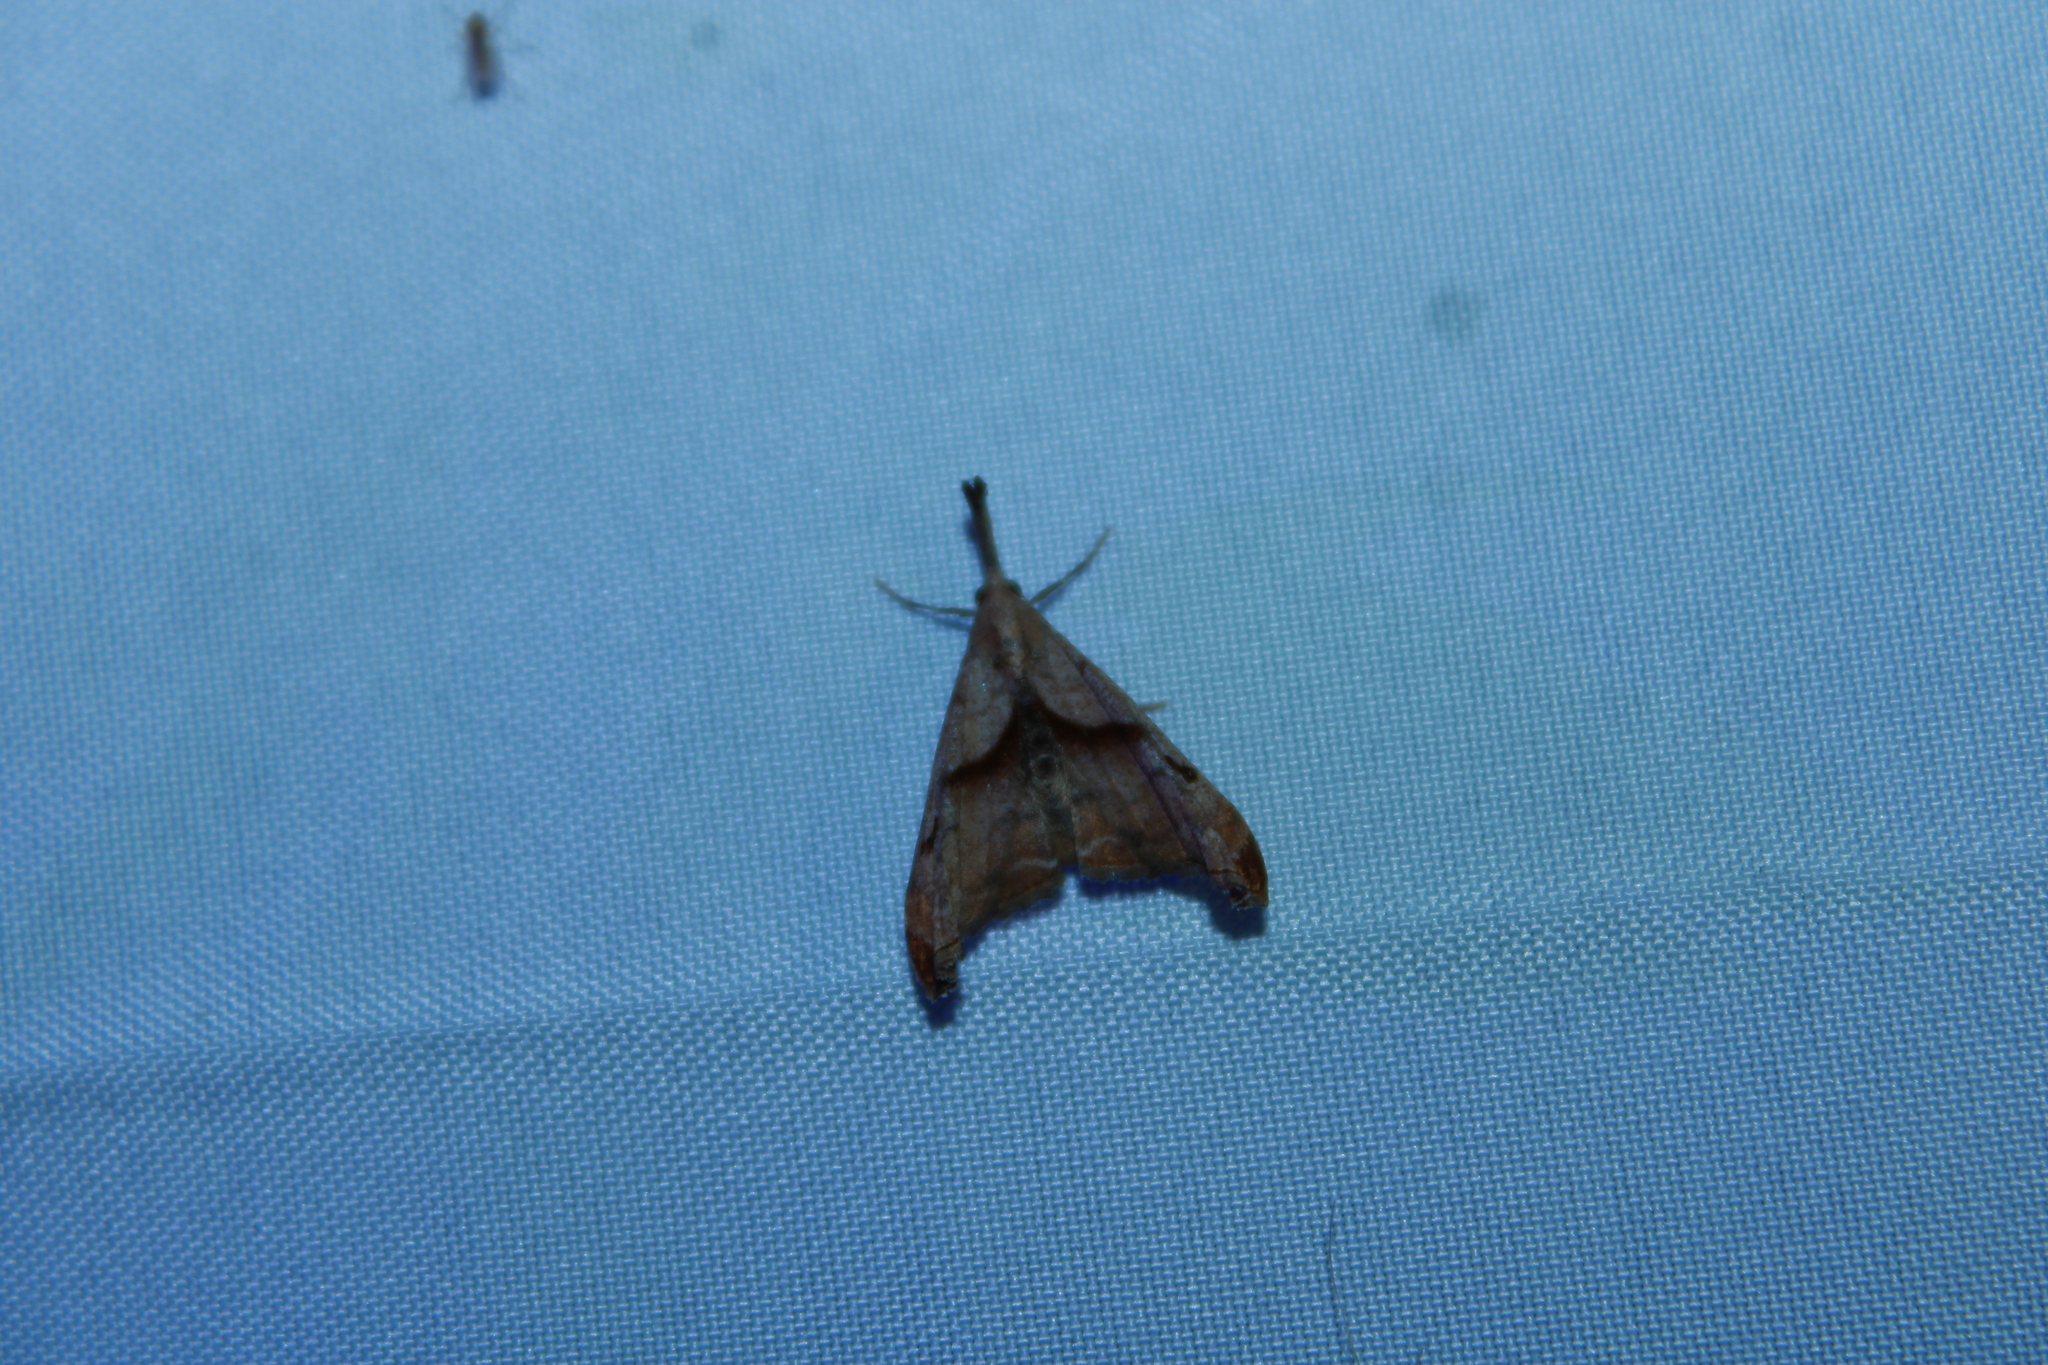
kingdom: Animalia
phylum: Arthropoda
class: Insecta
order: Lepidoptera
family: Erebidae
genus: Palthis
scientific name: Palthis angulalis
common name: Dark-spotted palthis moth
